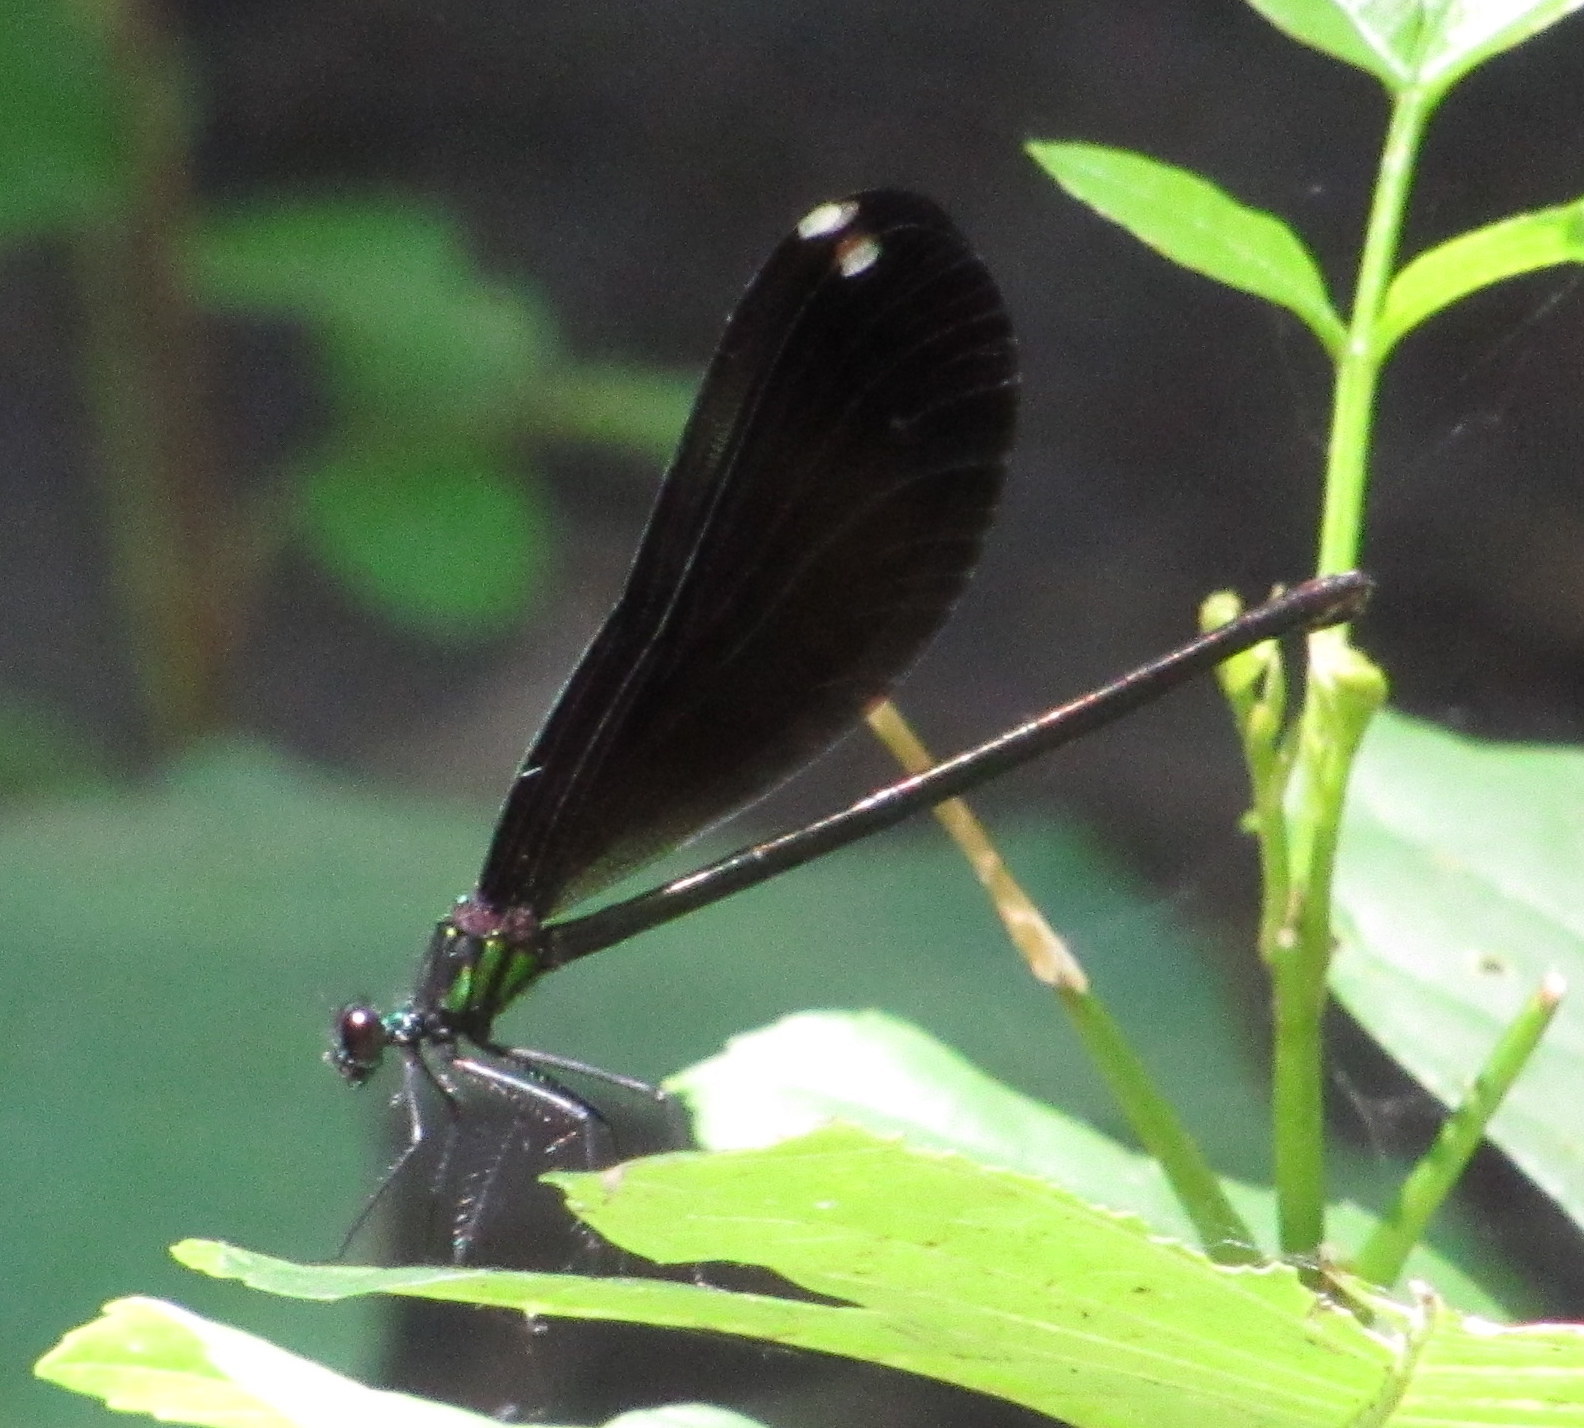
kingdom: Animalia
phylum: Arthropoda
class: Insecta
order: Odonata
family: Calopterygidae
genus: Calopteryx
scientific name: Calopteryx maculata
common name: Ebony jewelwing
